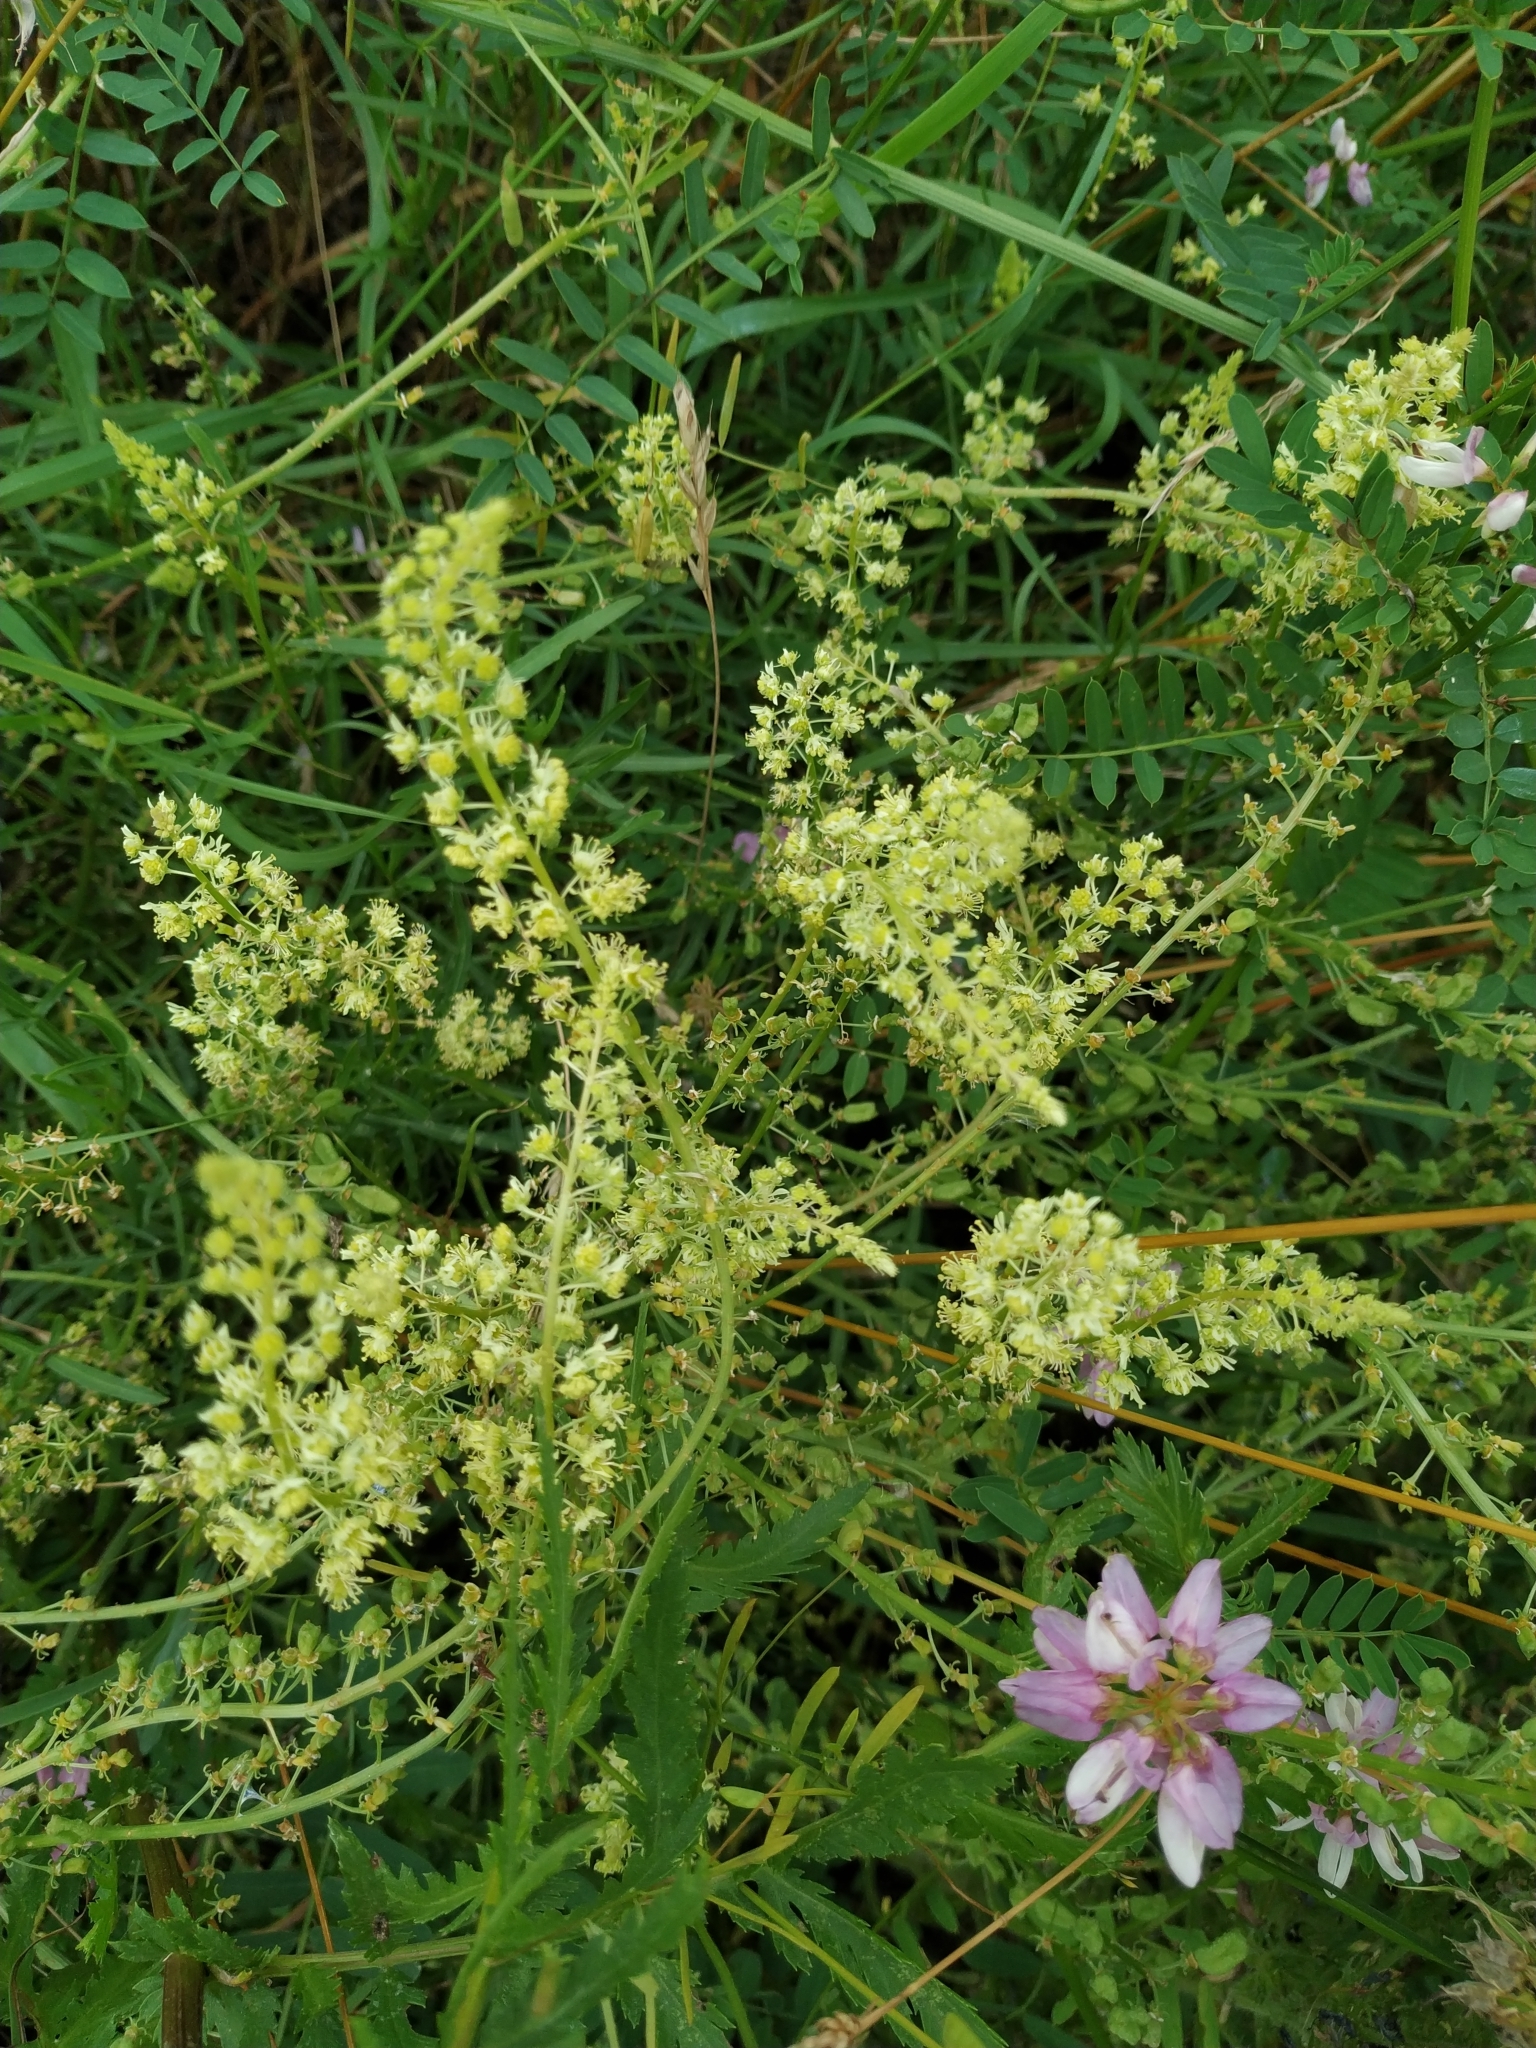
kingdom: Plantae
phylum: Tracheophyta
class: Magnoliopsida
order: Brassicales
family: Resedaceae
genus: Reseda
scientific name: Reseda lutea
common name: Wild mignonette
